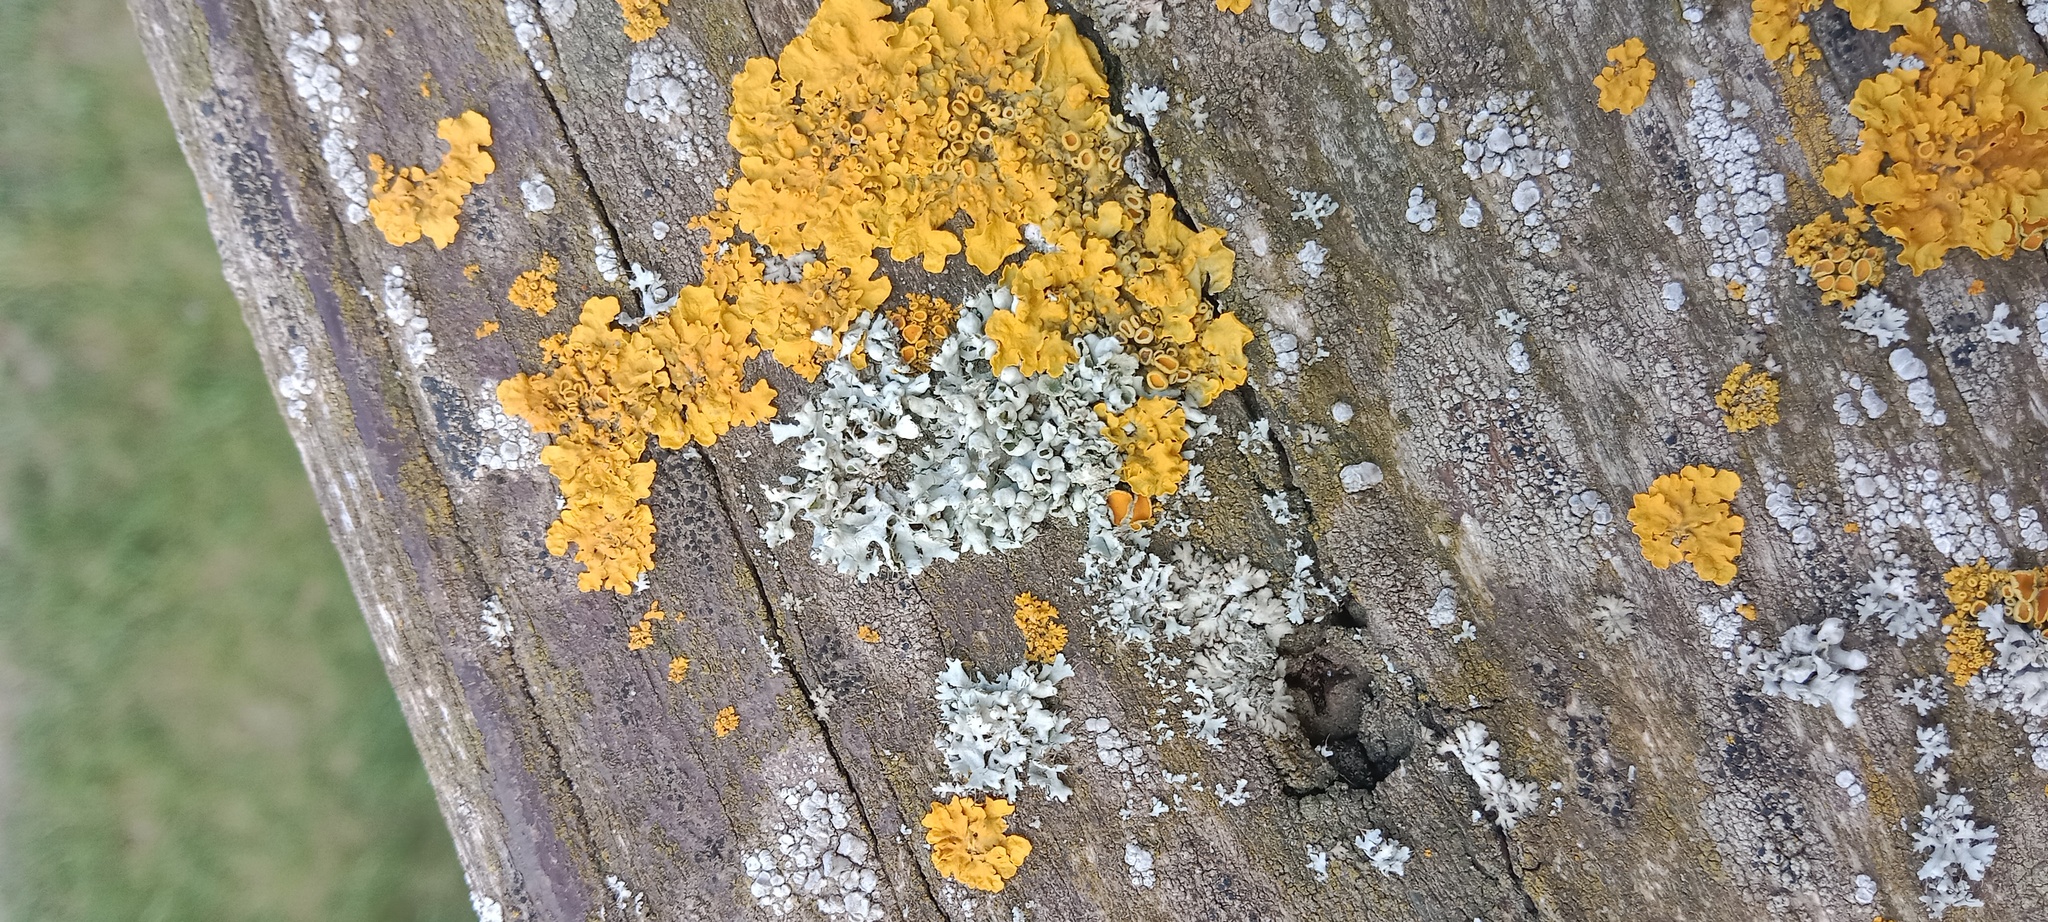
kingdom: Fungi
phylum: Ascomycota
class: Lecanoromycetes
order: Teloschistales
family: Teloschistaceae
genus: Xanthoria
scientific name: Xanthoria parietina
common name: Common orange lichen
